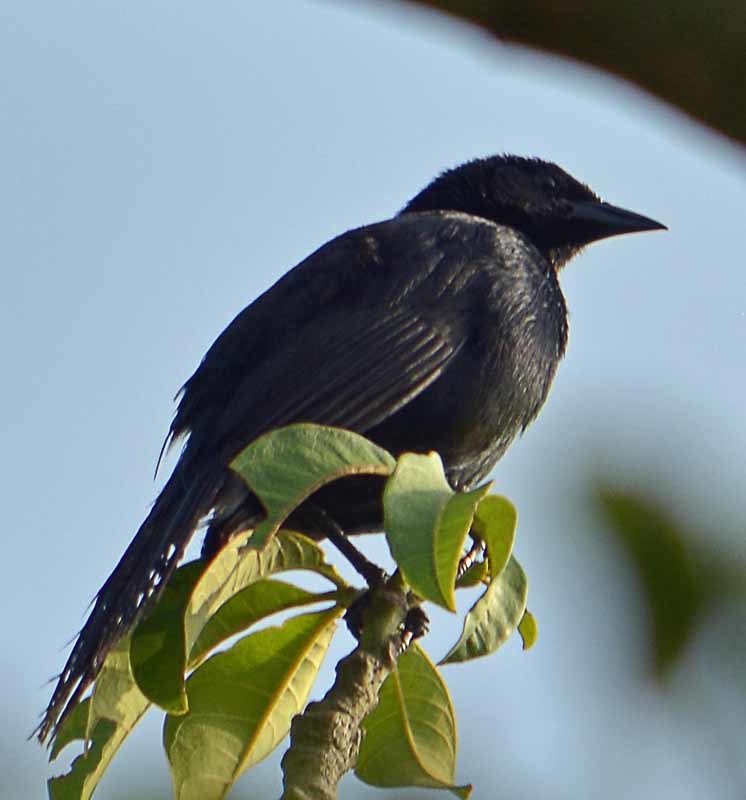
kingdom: Animalia
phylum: Chordata
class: Aves
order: Passeriformes
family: Icteridae
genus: Dives
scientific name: Dives dives
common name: Melodious blackbird
